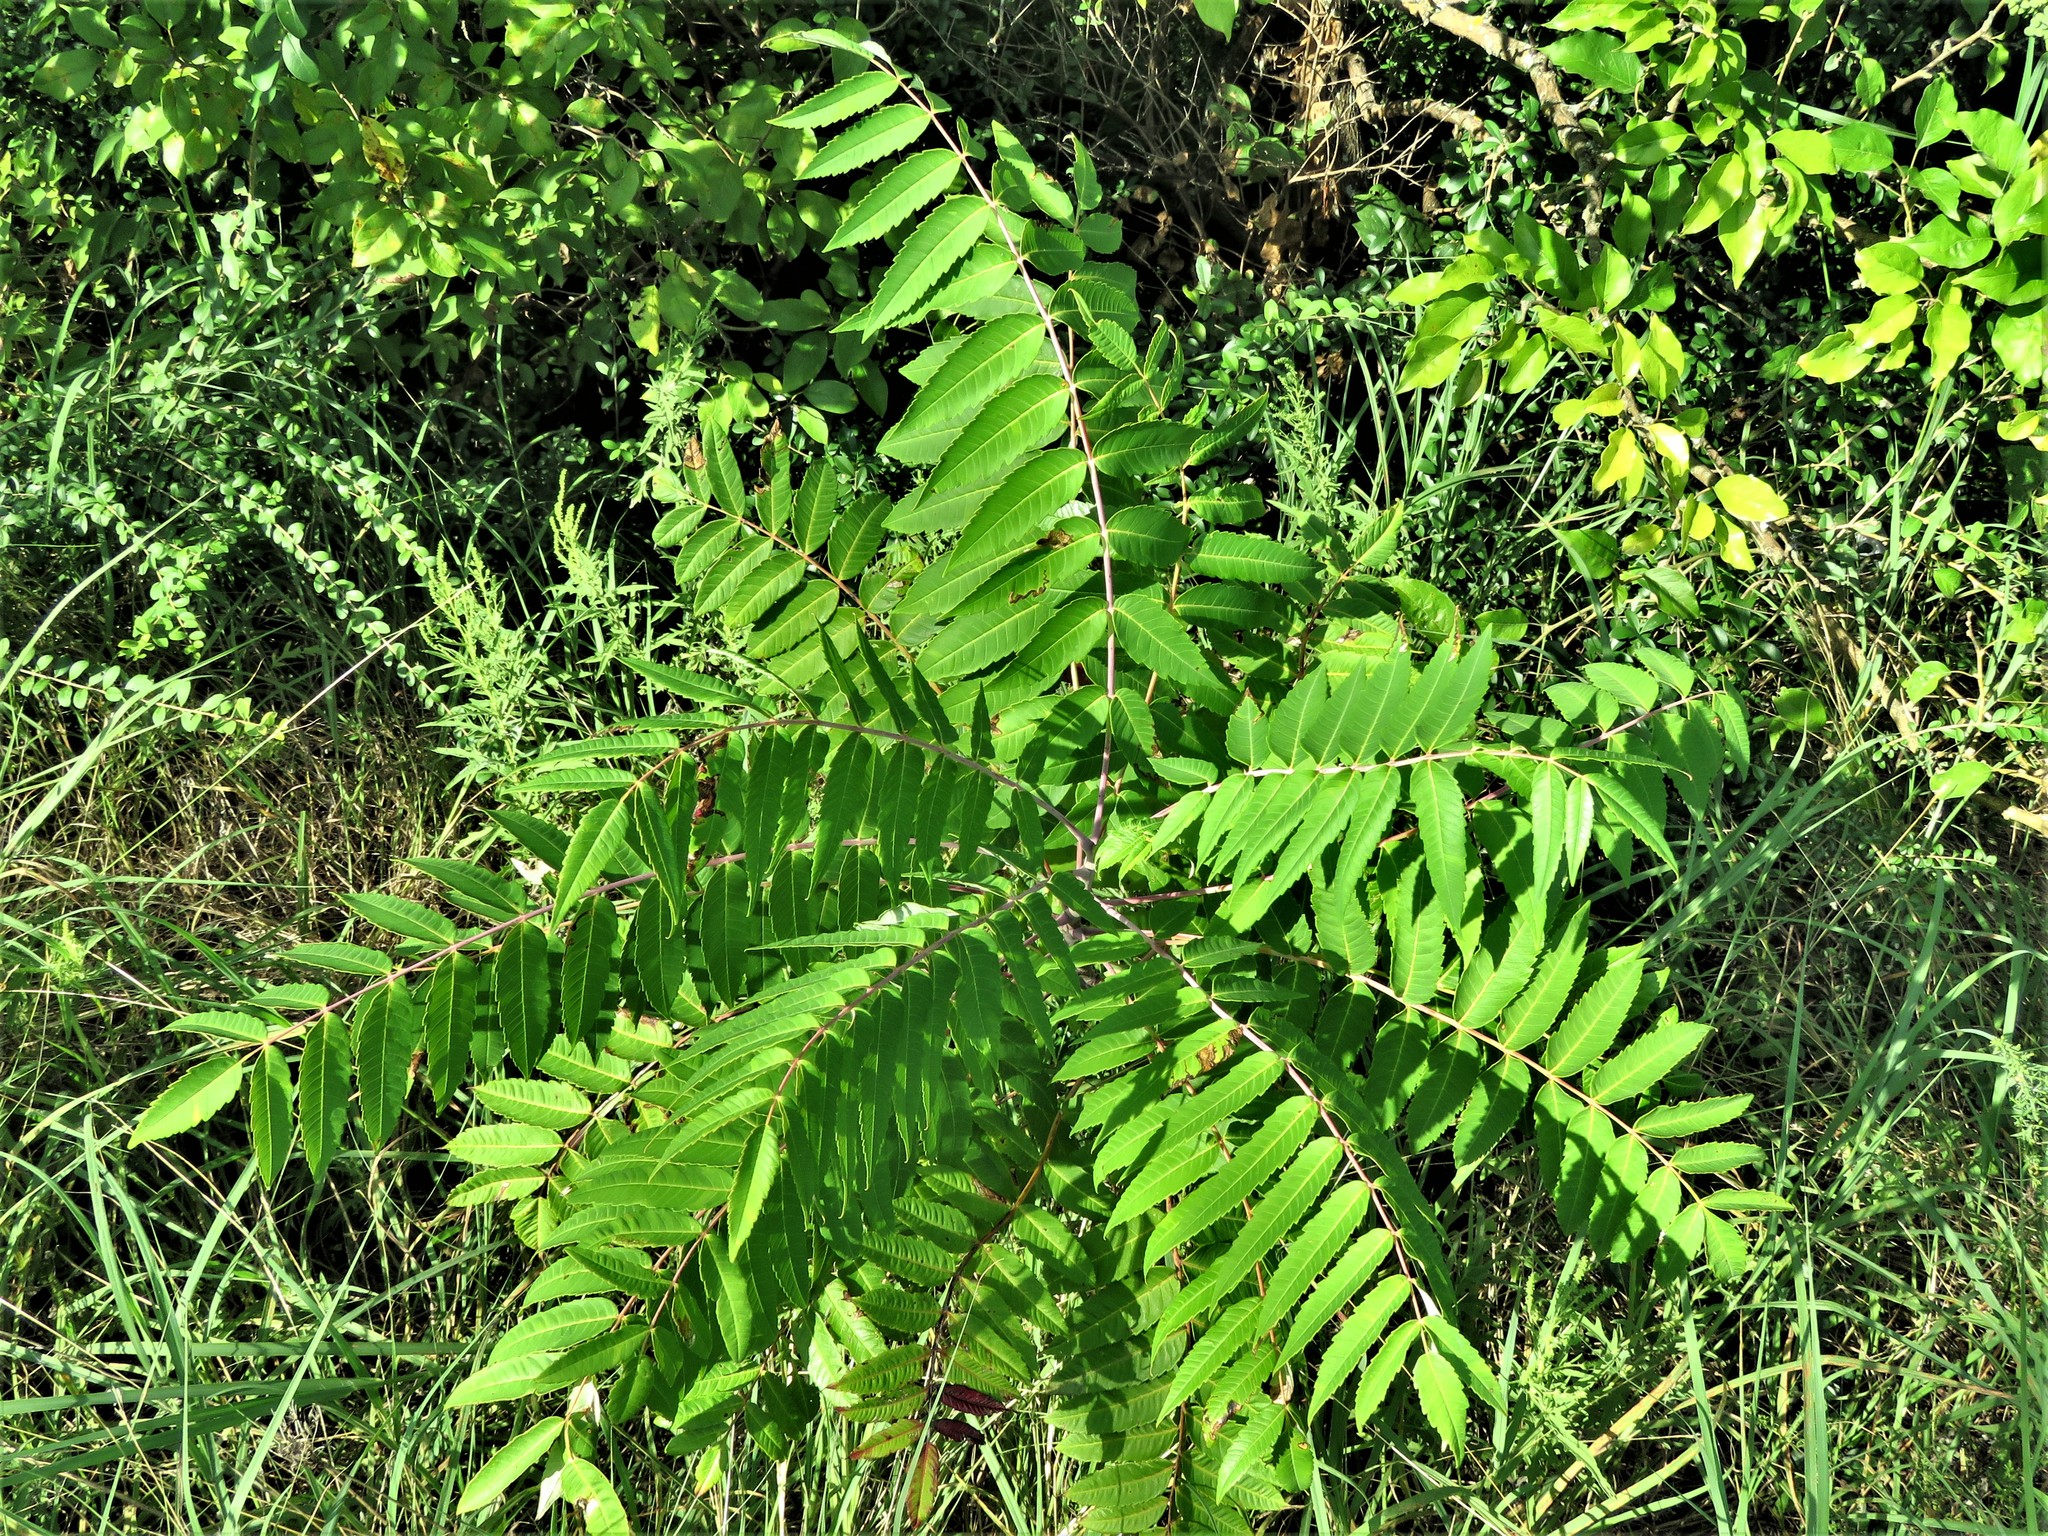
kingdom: Plantae
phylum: Tracheophyta
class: Magnoliopsida
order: Sapindales
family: Anacardiaceae
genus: Rhus
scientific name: Rhus glabra
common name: Scarlet sumac
